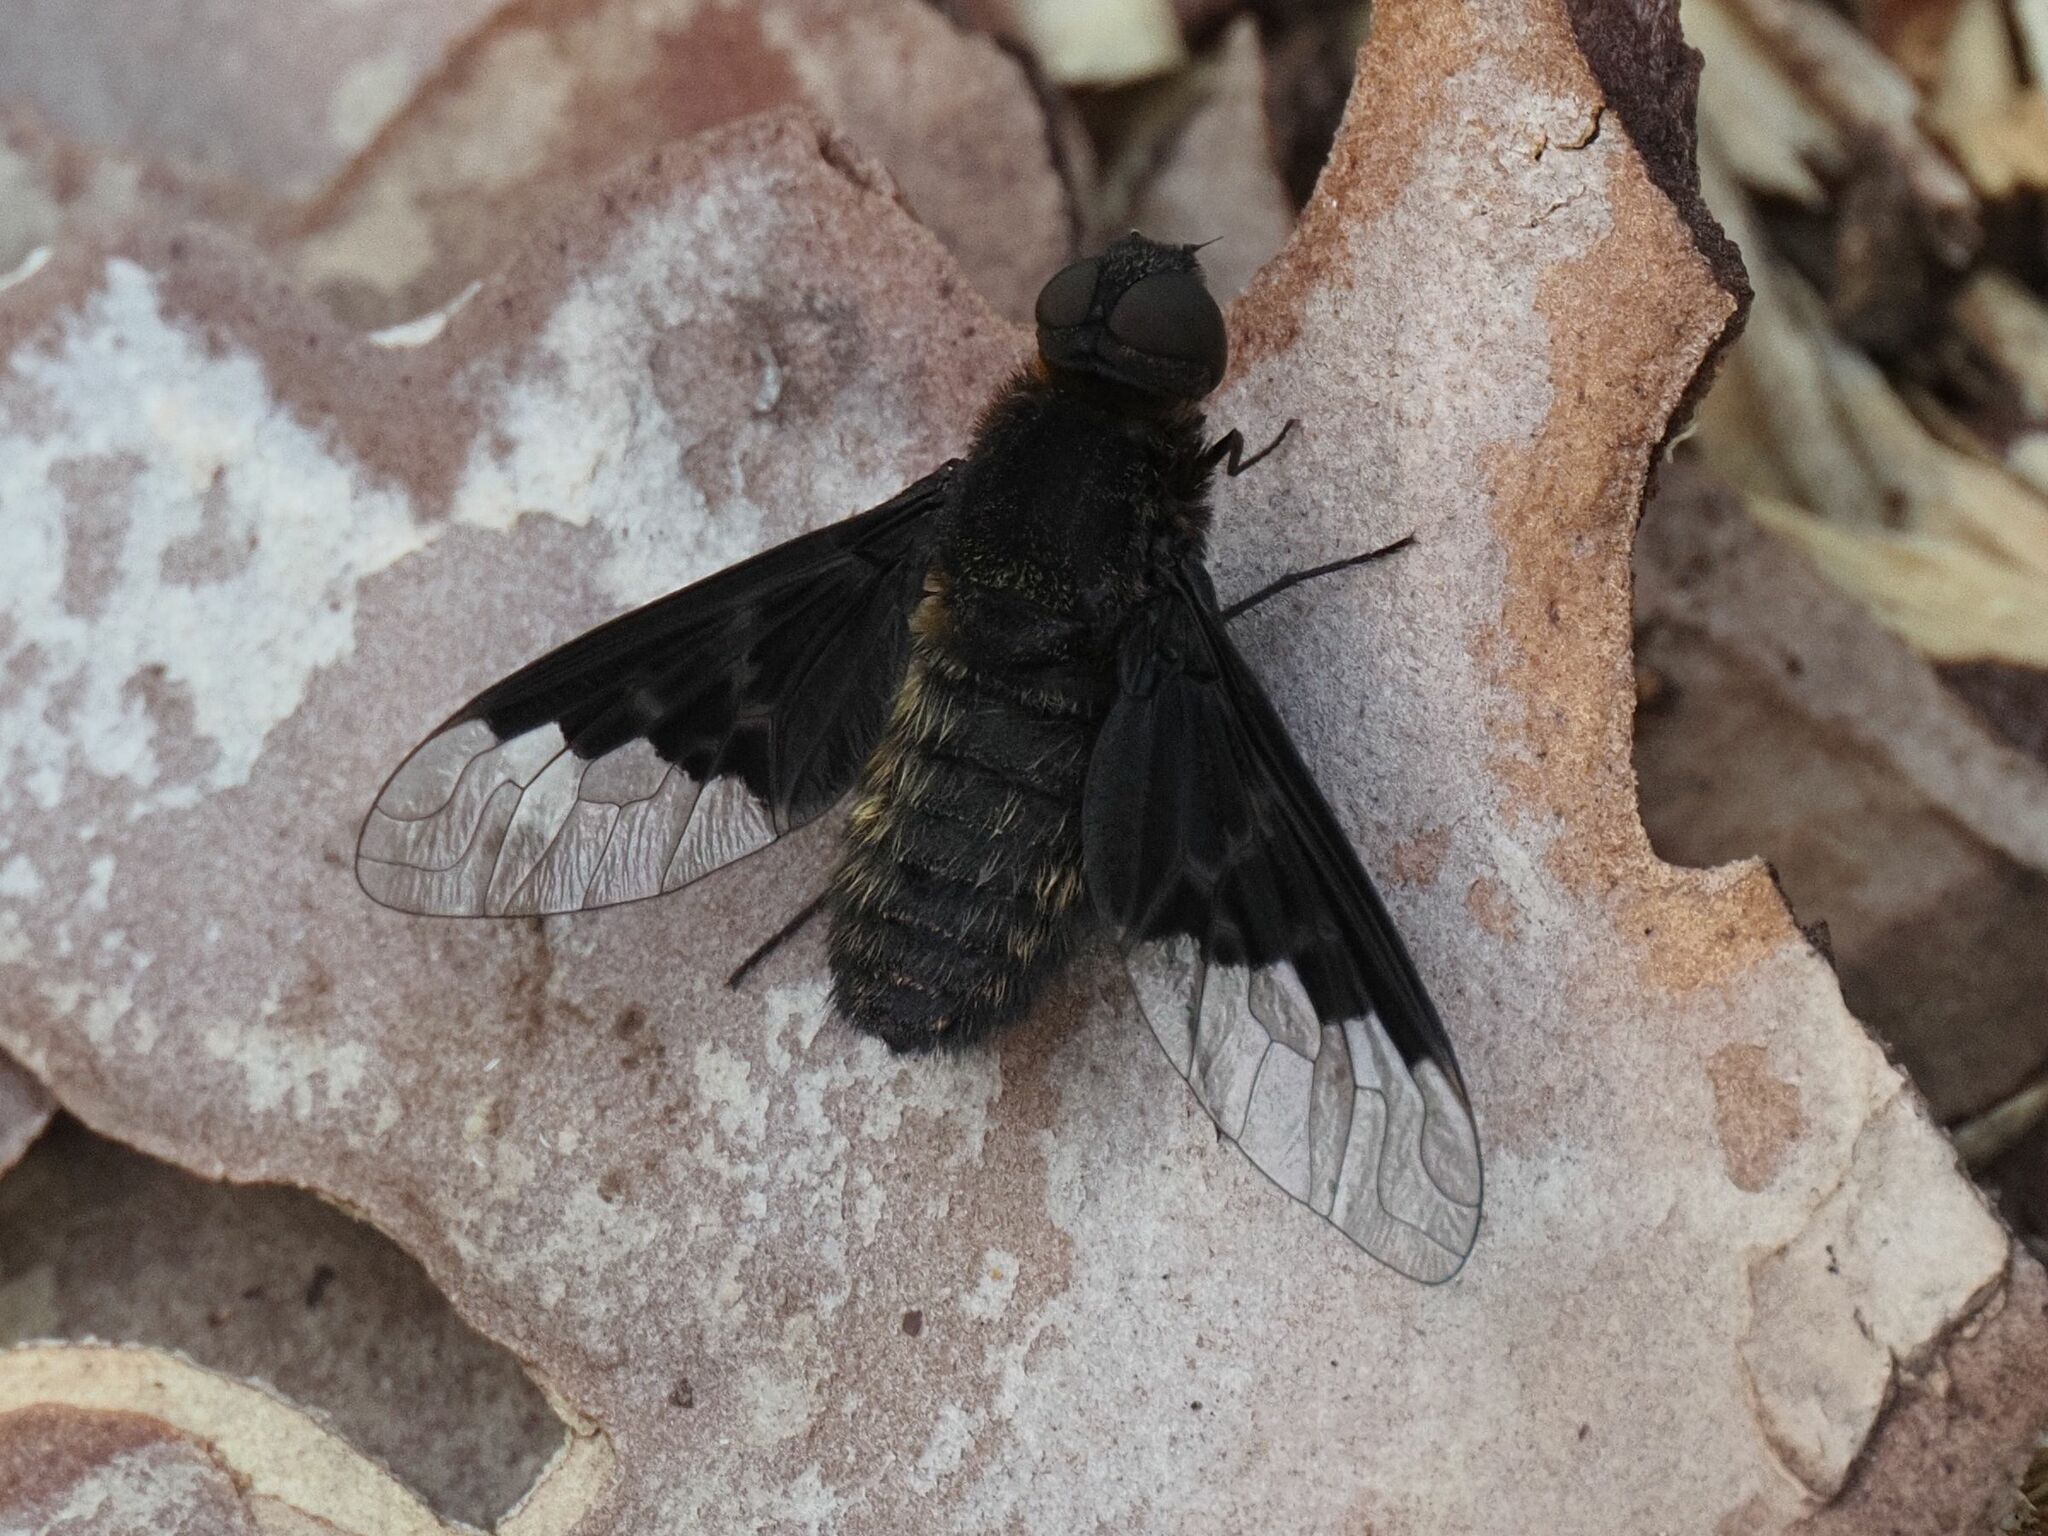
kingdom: Animalia
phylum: Arthropoda
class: Insecta
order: Diptera
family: Bombyliidae
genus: Hemipenthes
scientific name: Hemipenthes morio
